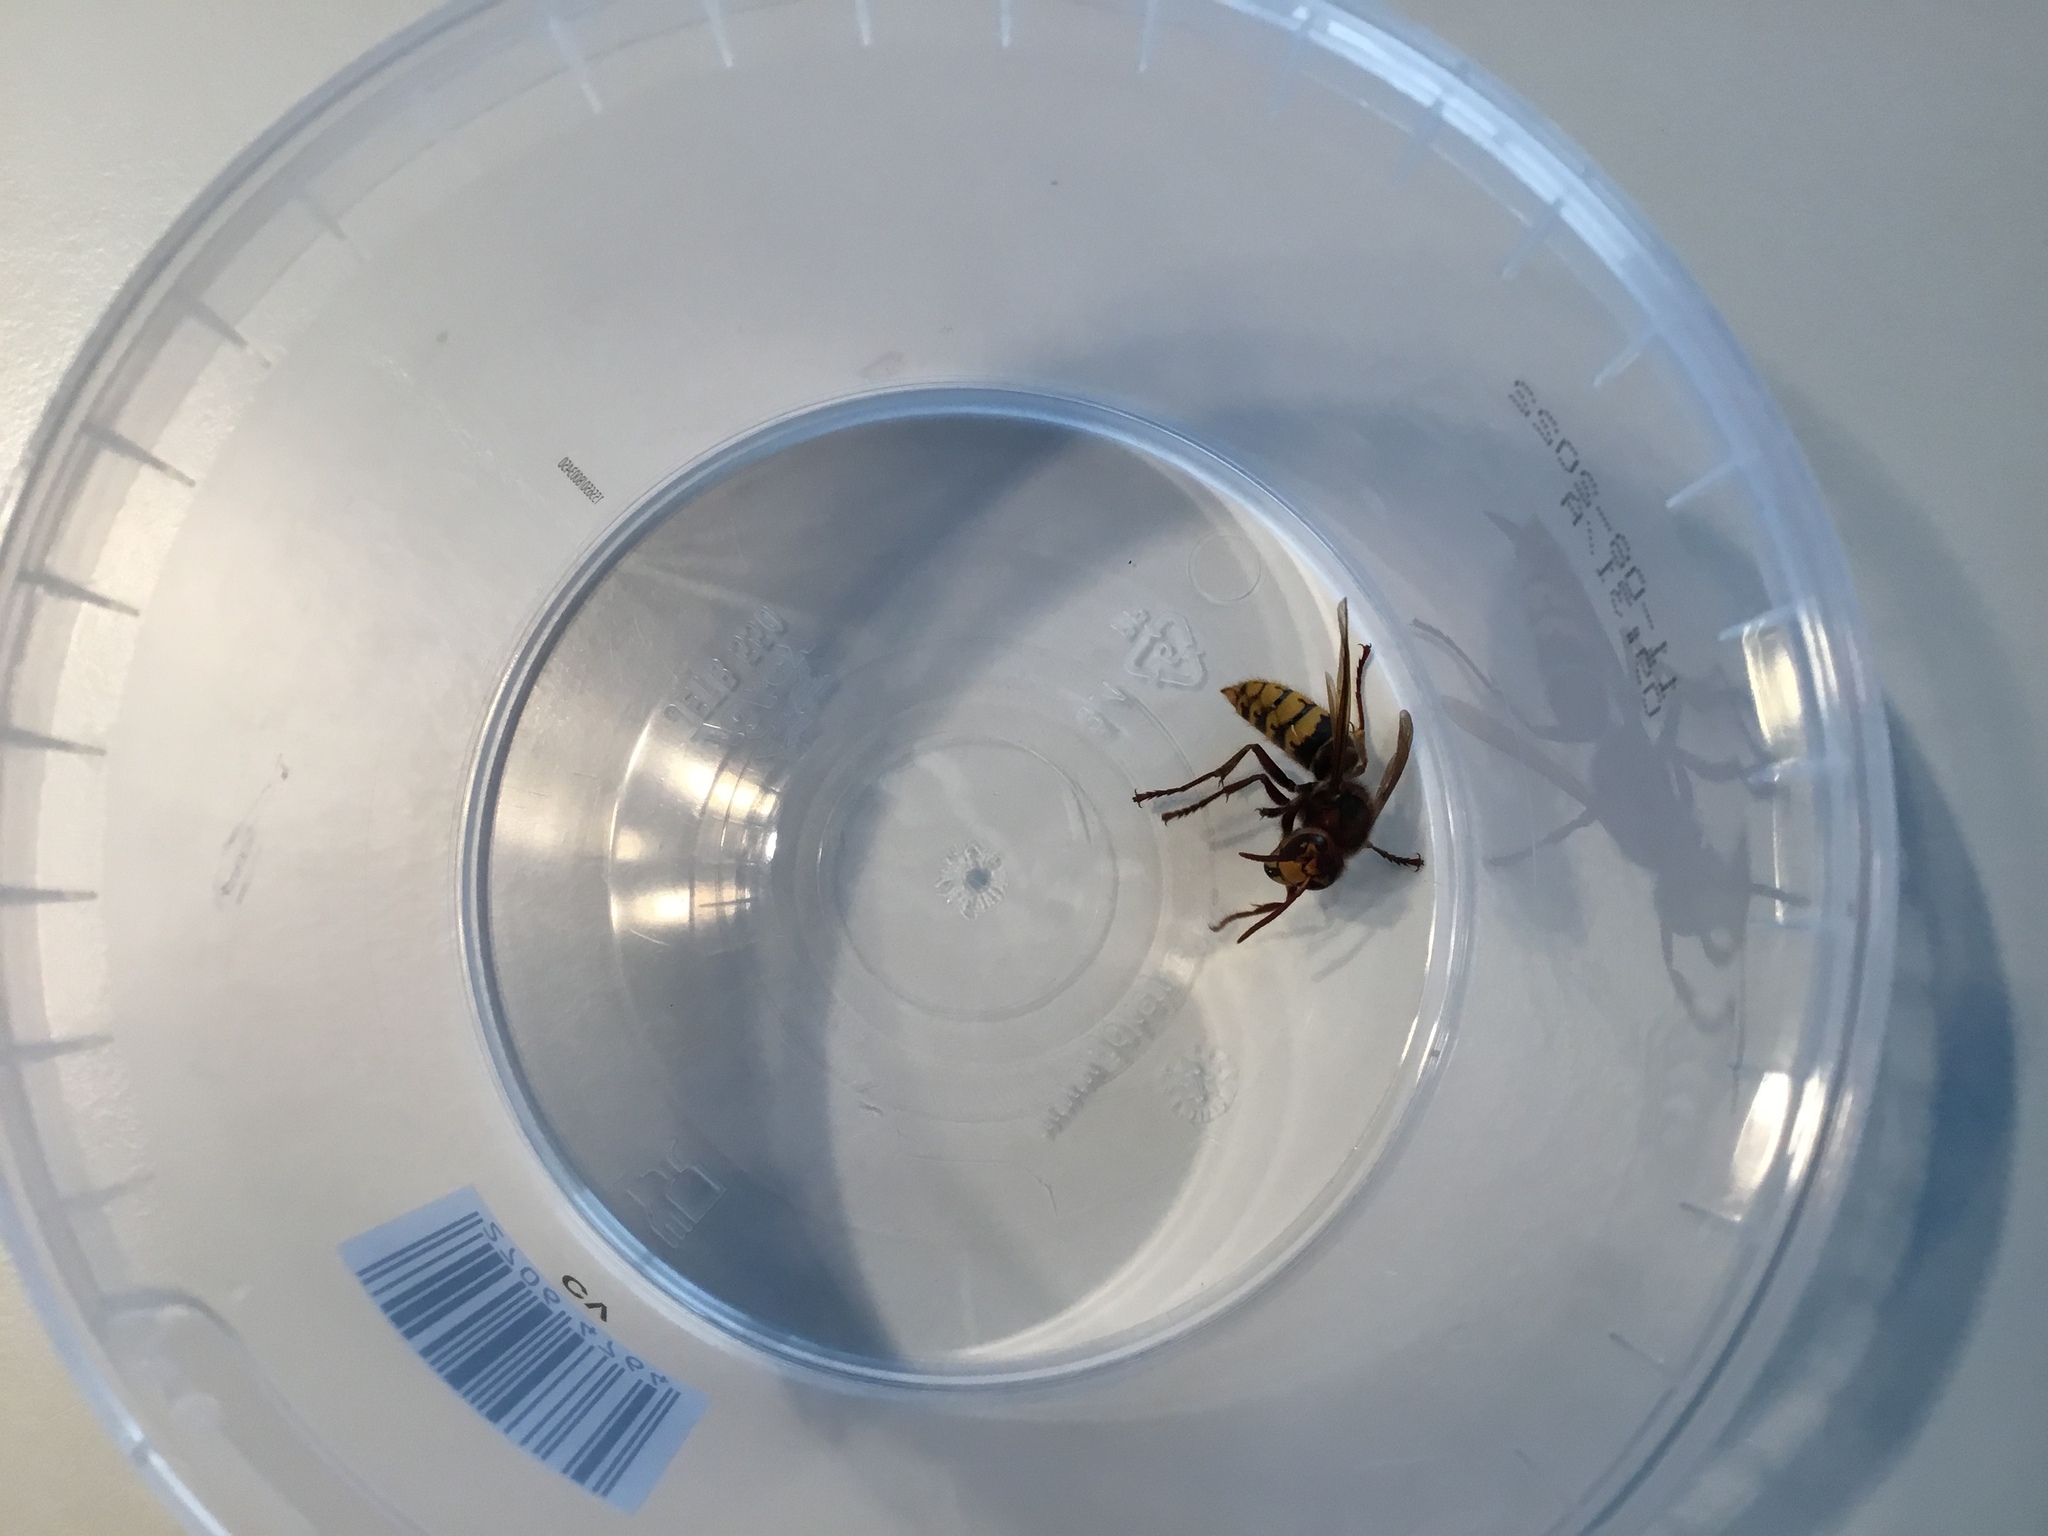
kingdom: Animalia
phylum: Arthropoda
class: Insecta
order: Hymenoptera
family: Vespidae
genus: Vespa
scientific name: Vespa crabro
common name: Hornet
